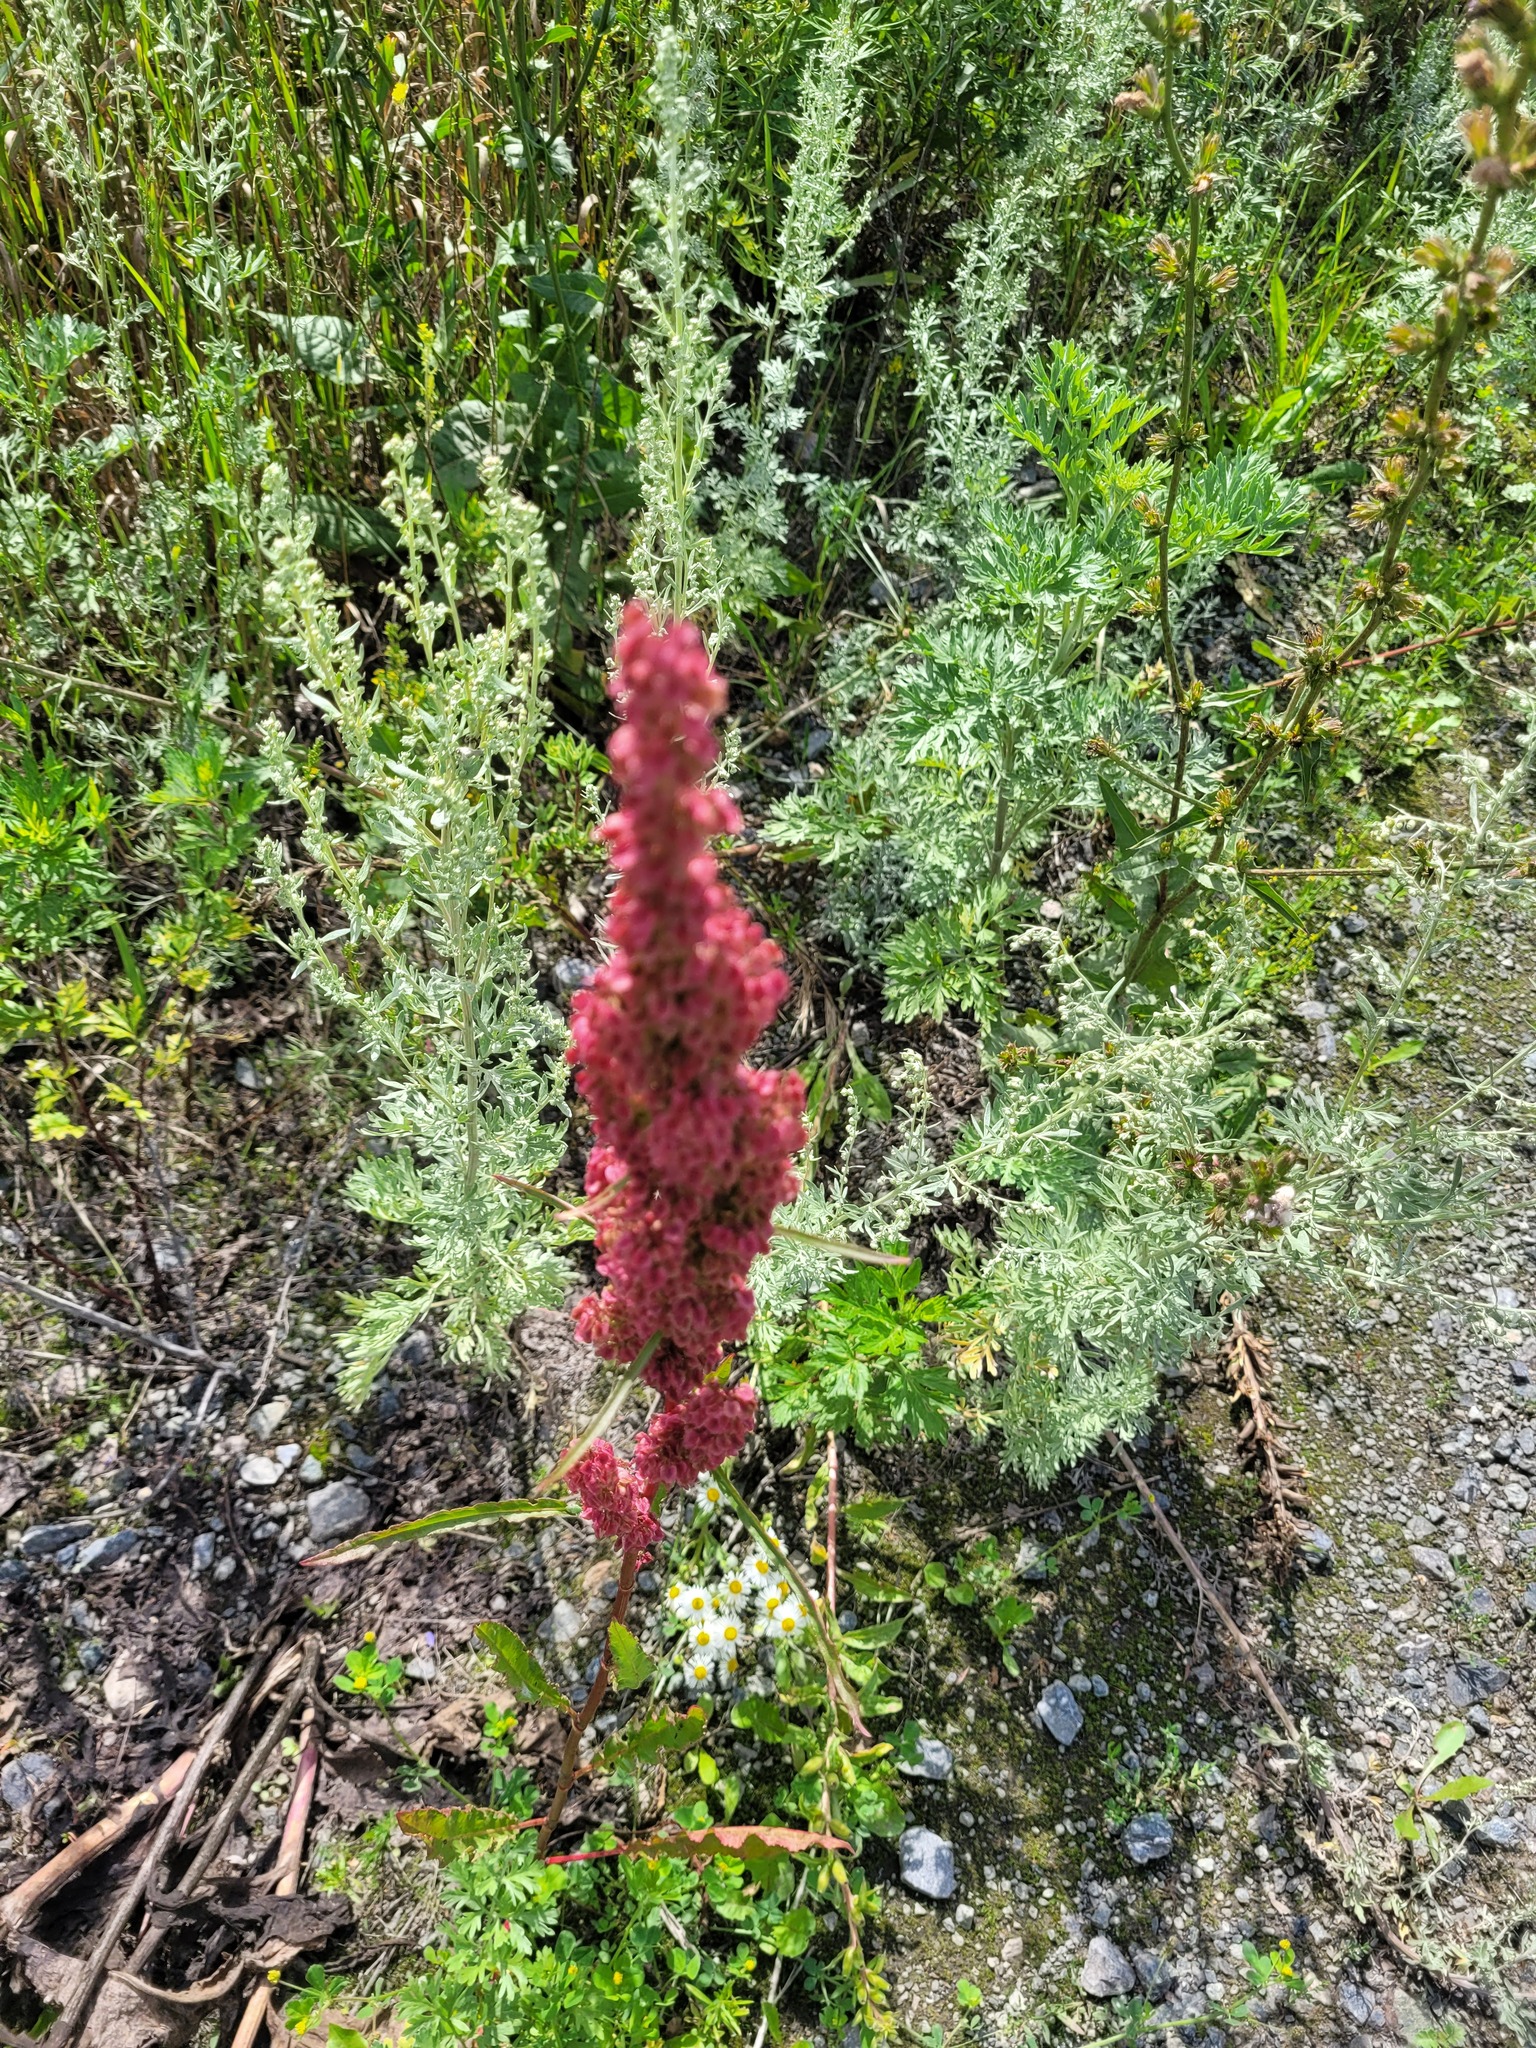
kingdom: Plantae
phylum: Tracheophyta
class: Magnoliopsida
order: Caryophyllales
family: Polygonaceae
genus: Rumex
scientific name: Rumex longifolius
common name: Dooryard dock
